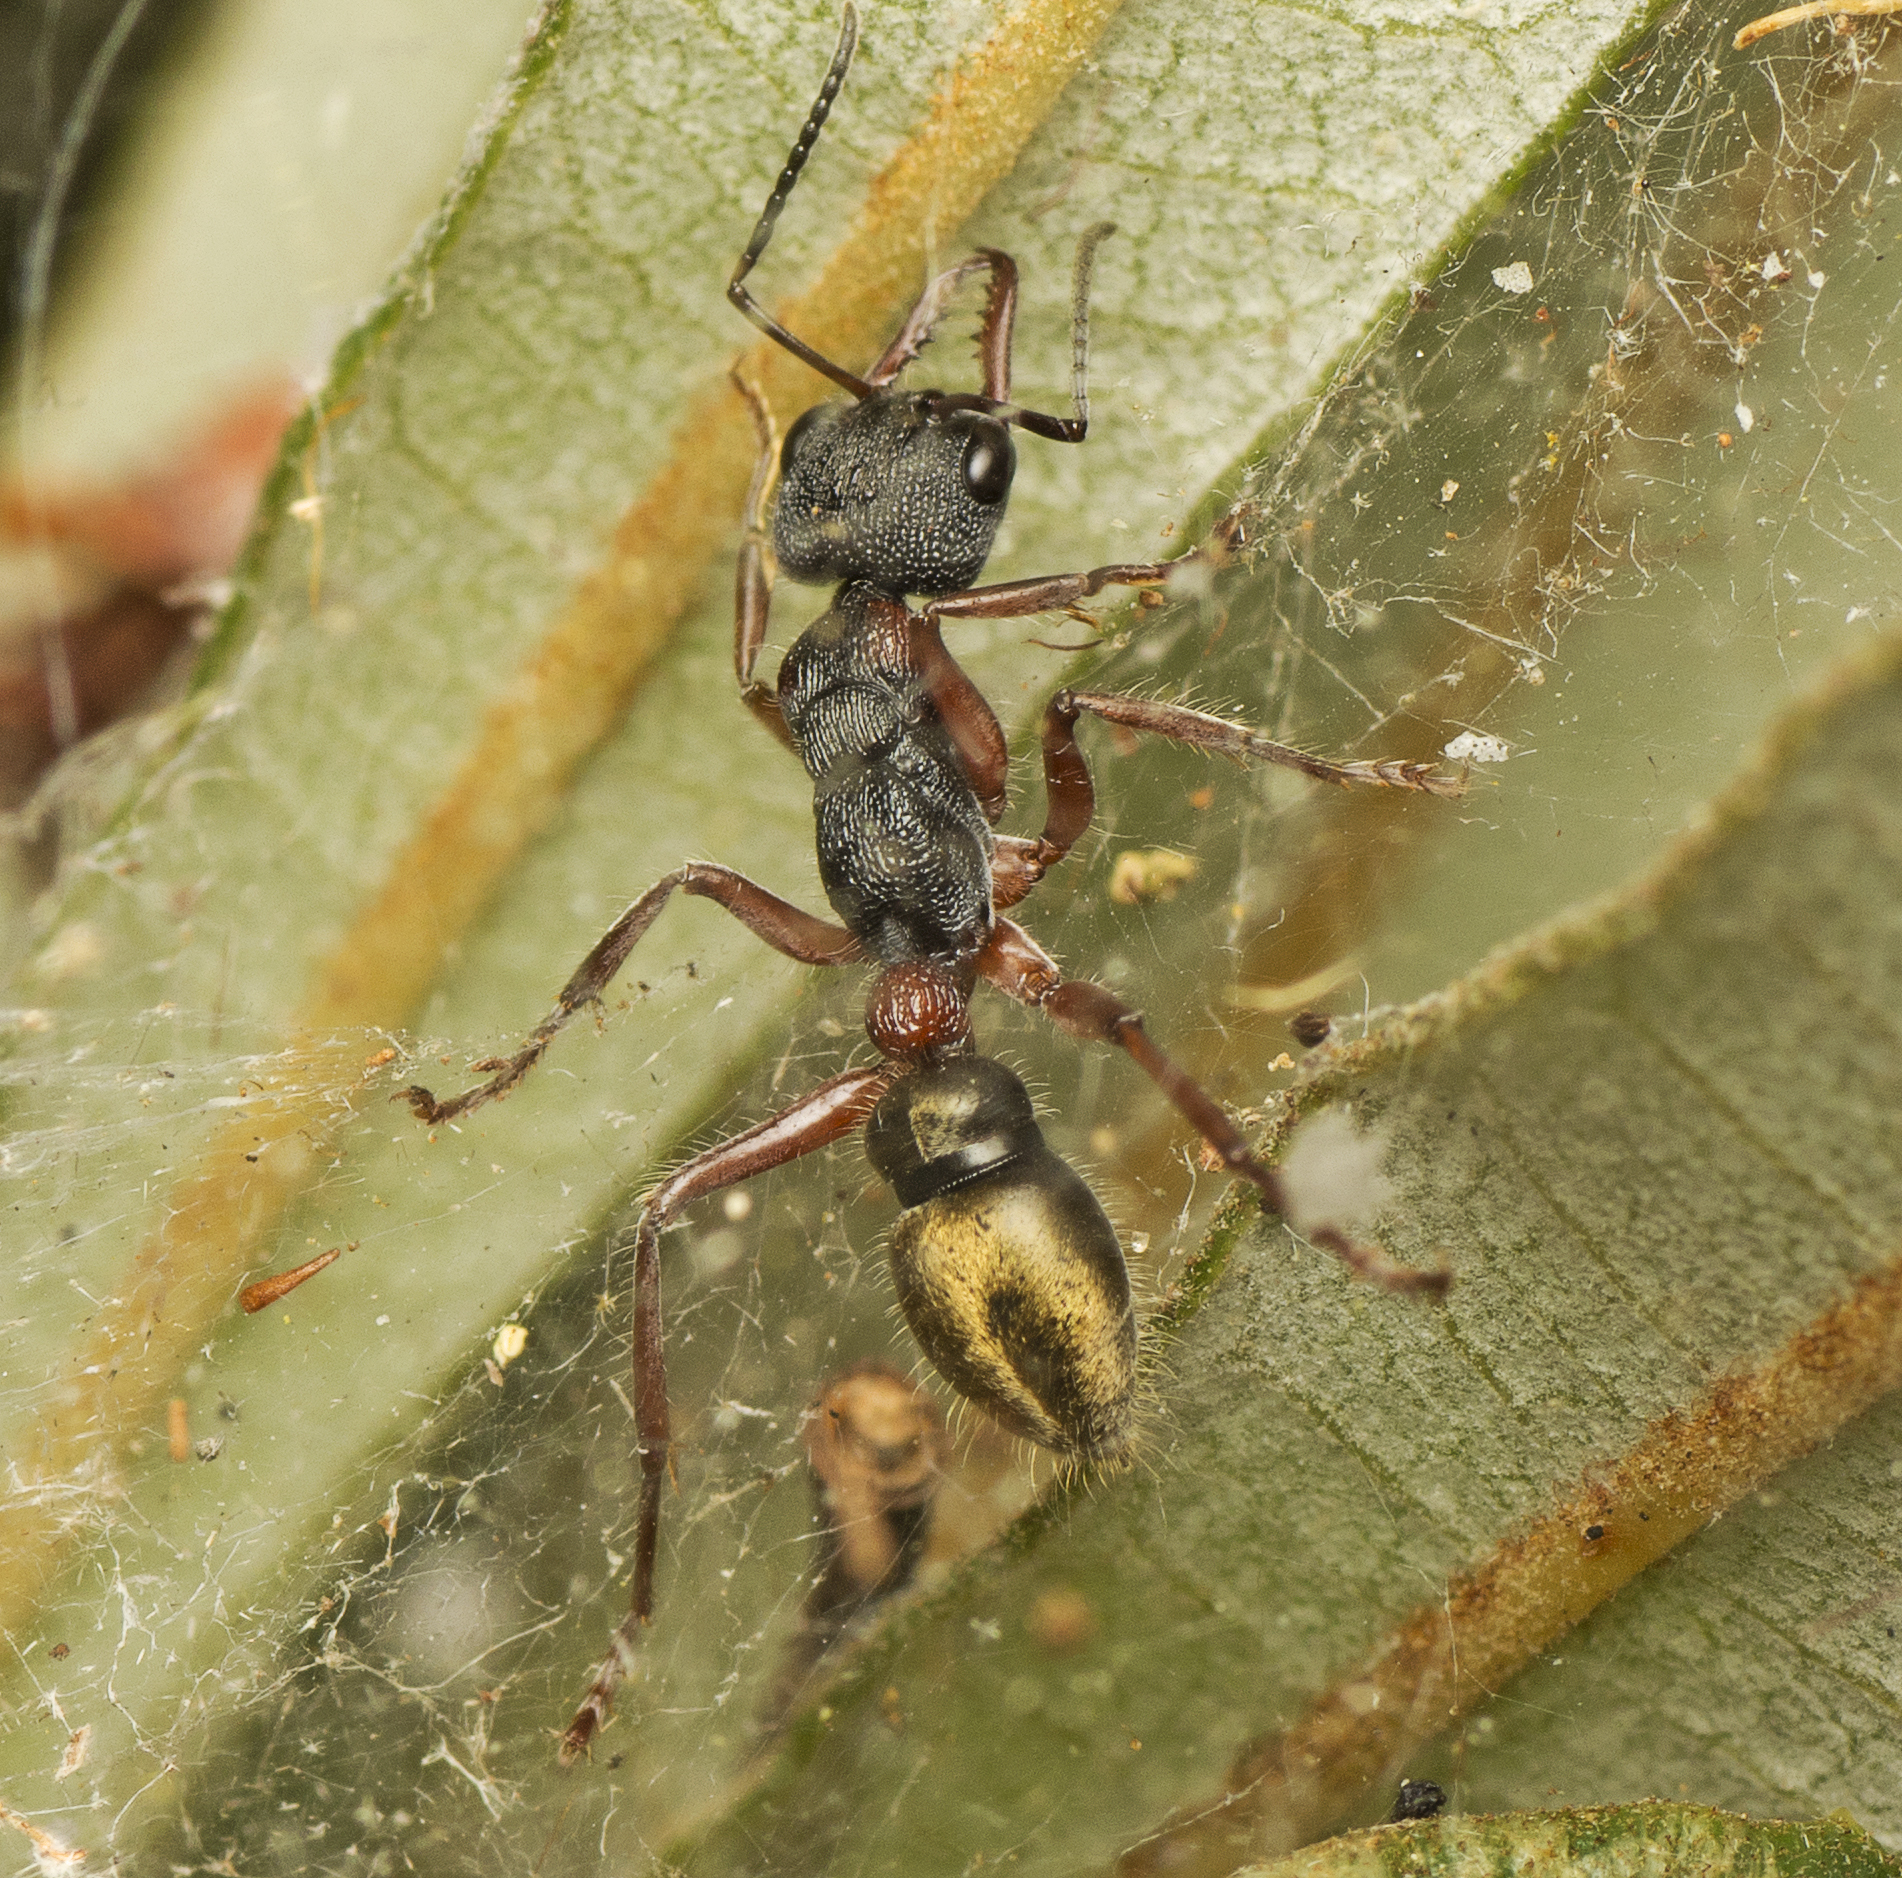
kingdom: Animalia
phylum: Arthropoda
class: Insecta
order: Hymenoptera
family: Formicidae
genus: Myrmecia
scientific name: Myrmecia chrysogaster
